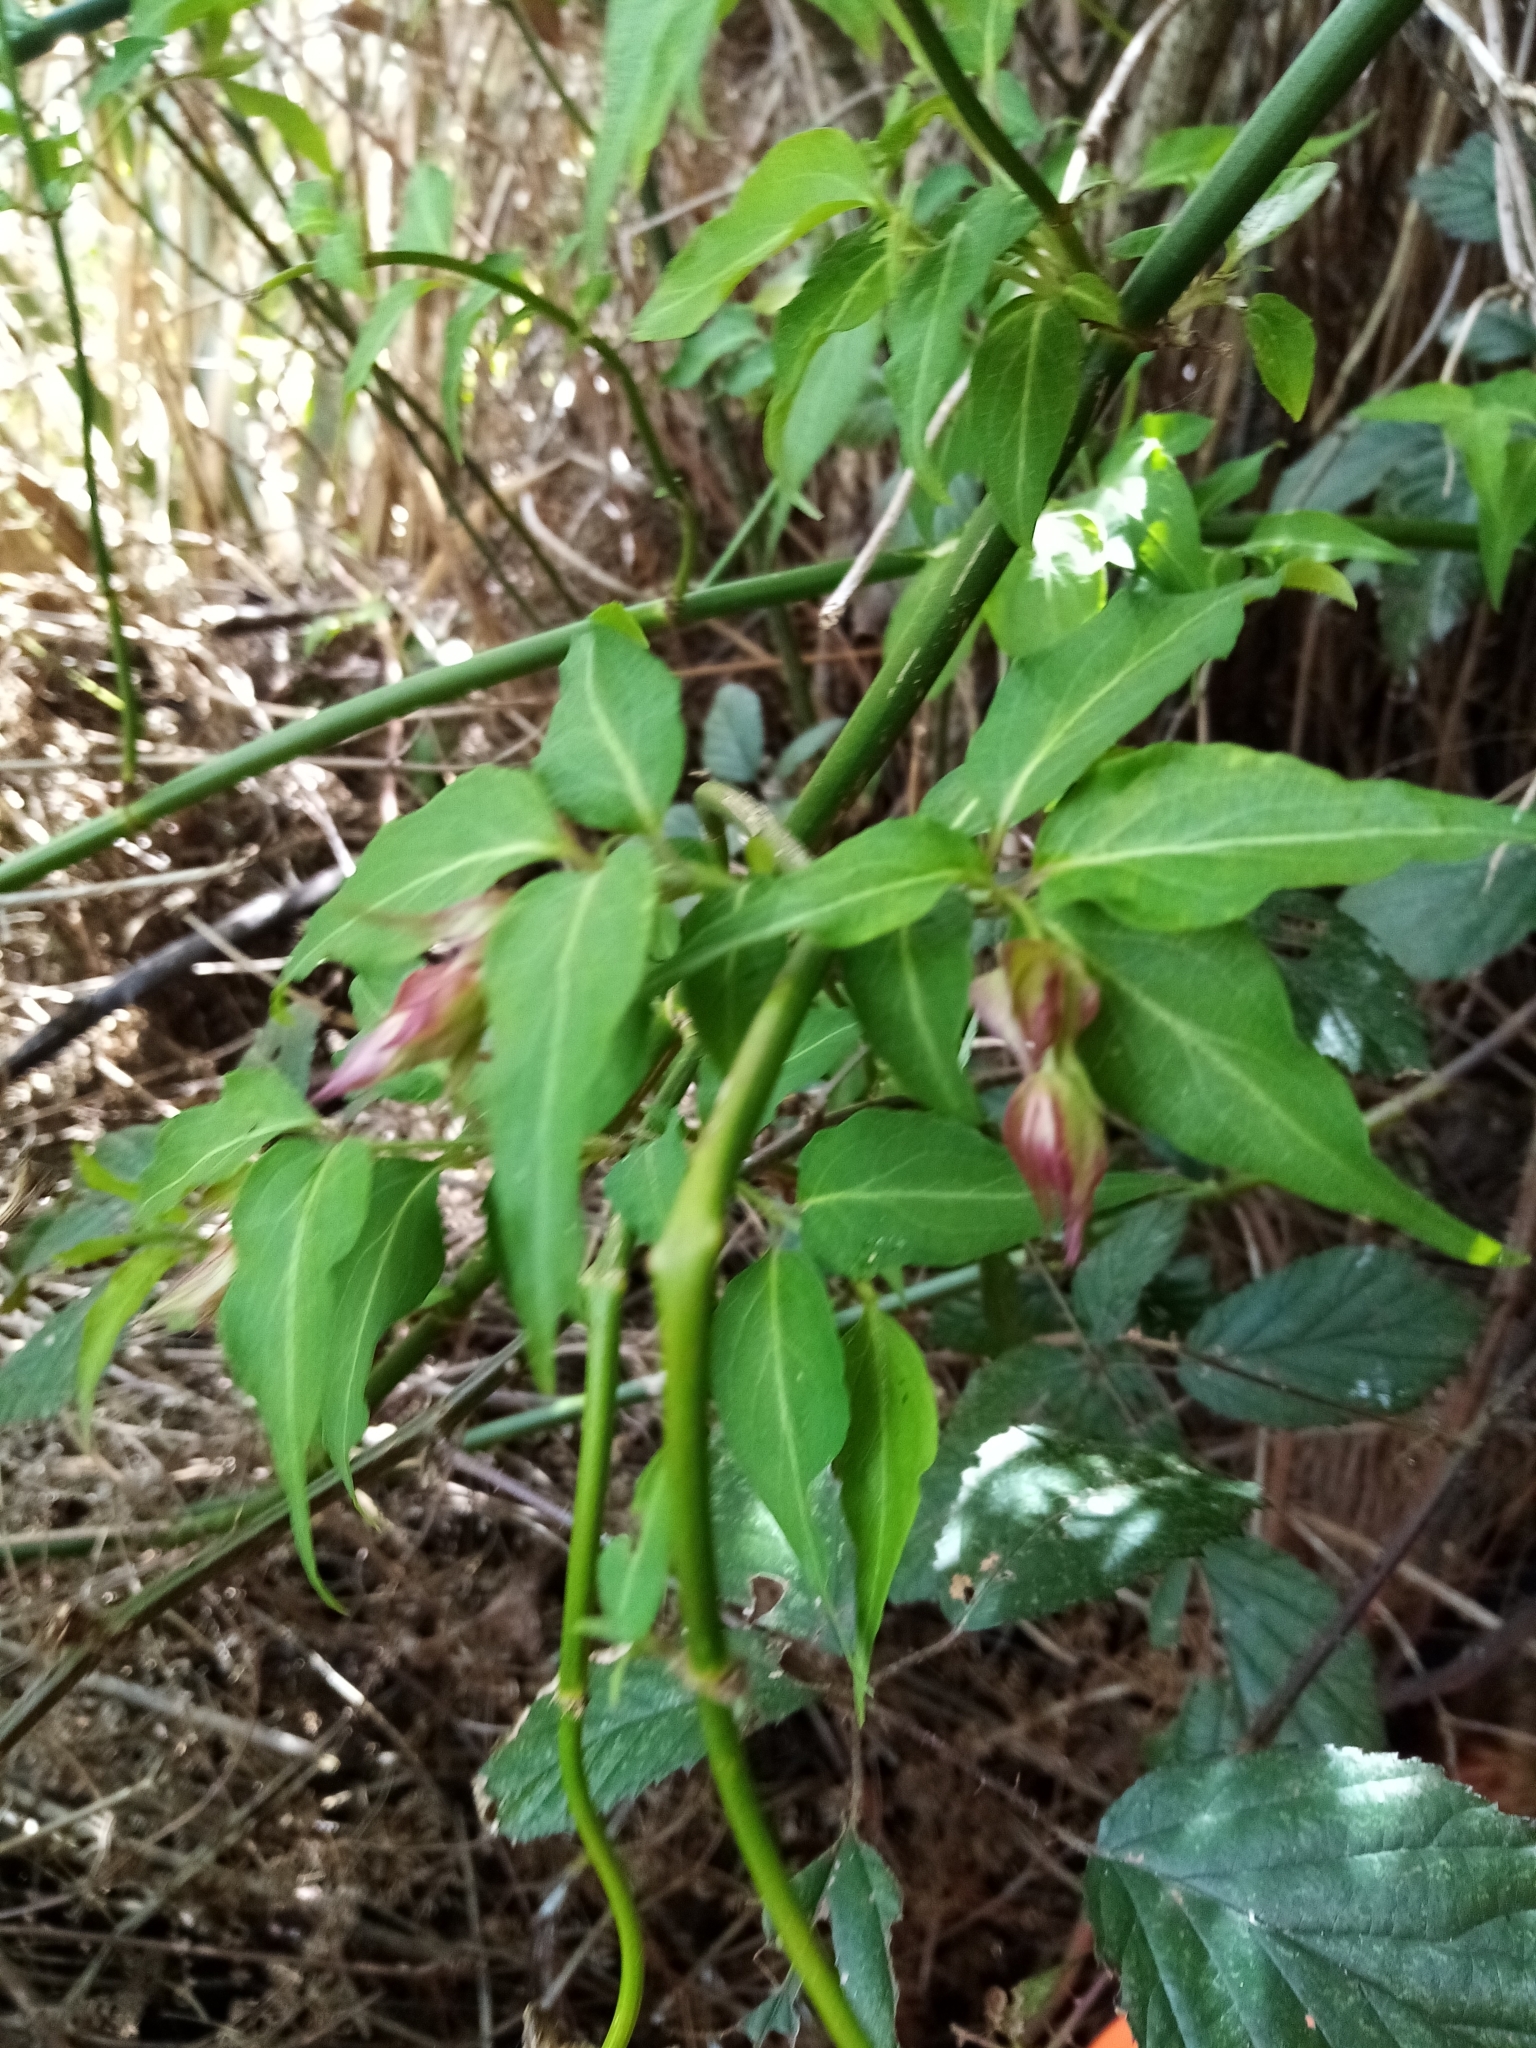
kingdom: Plantae
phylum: Tracheophyta
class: Magnoliopsida
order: Dipsacales
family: Caprifoliaceae
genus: Leycesteria
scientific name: Leycesteria formosa
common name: Himalayan honeysuckle
